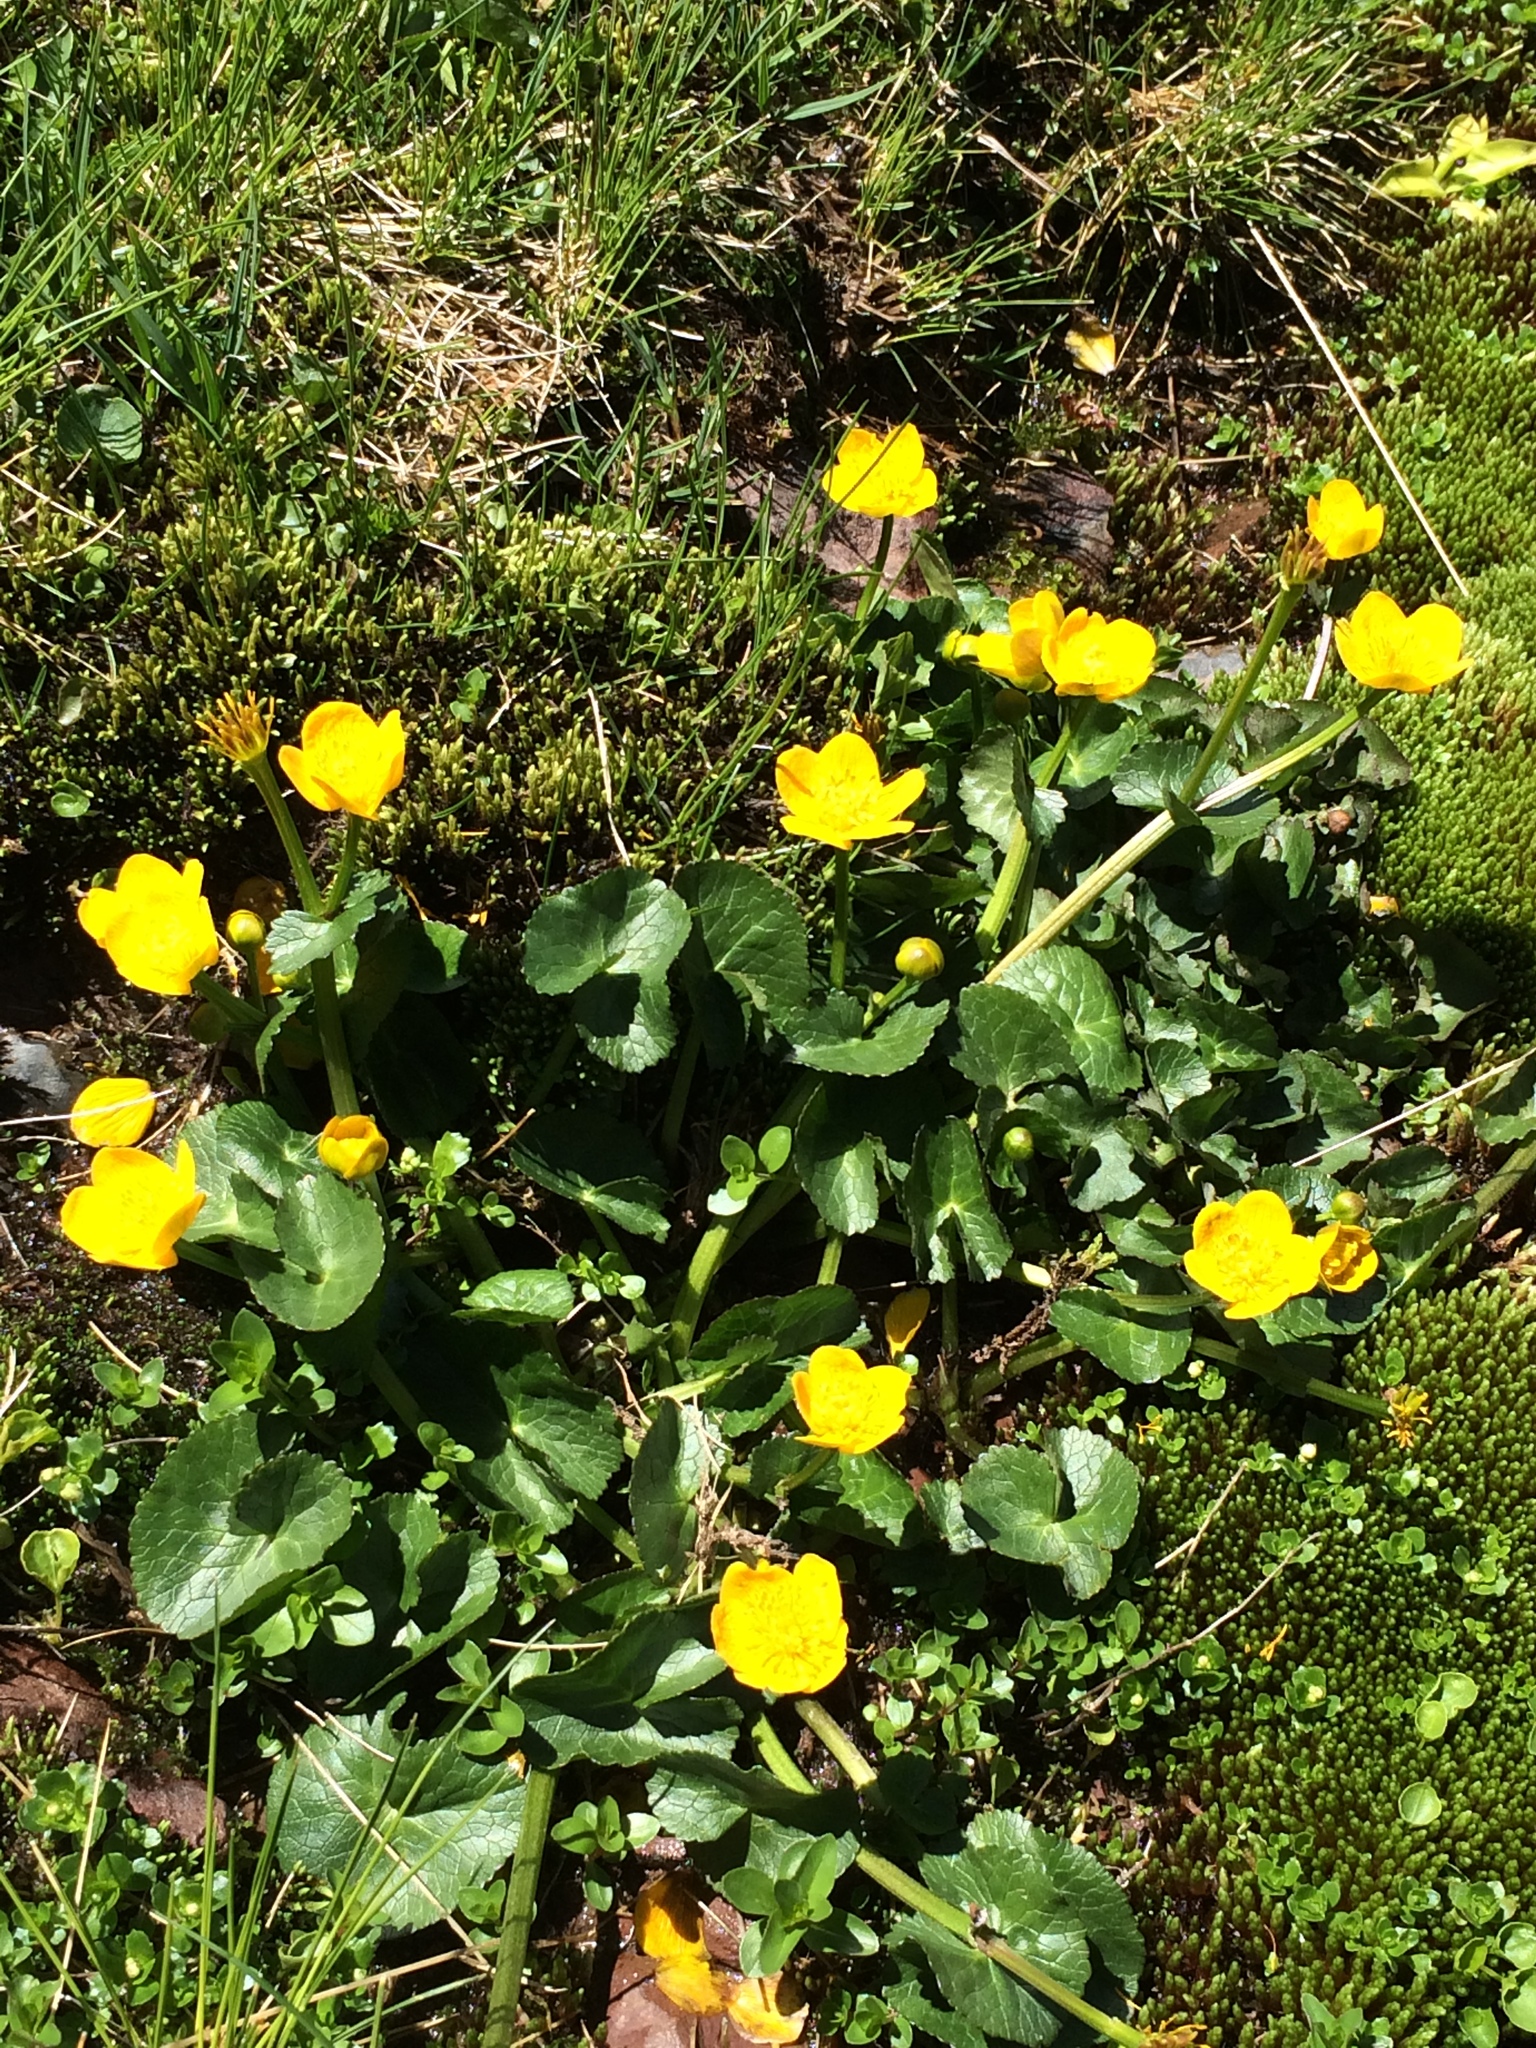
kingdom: Plantae
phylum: Tracheophyta
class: Magnoliopsida
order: Ranunculales
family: Ranunculaceae
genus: Caltha
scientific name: Caltha palustris
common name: Marsh marigold
